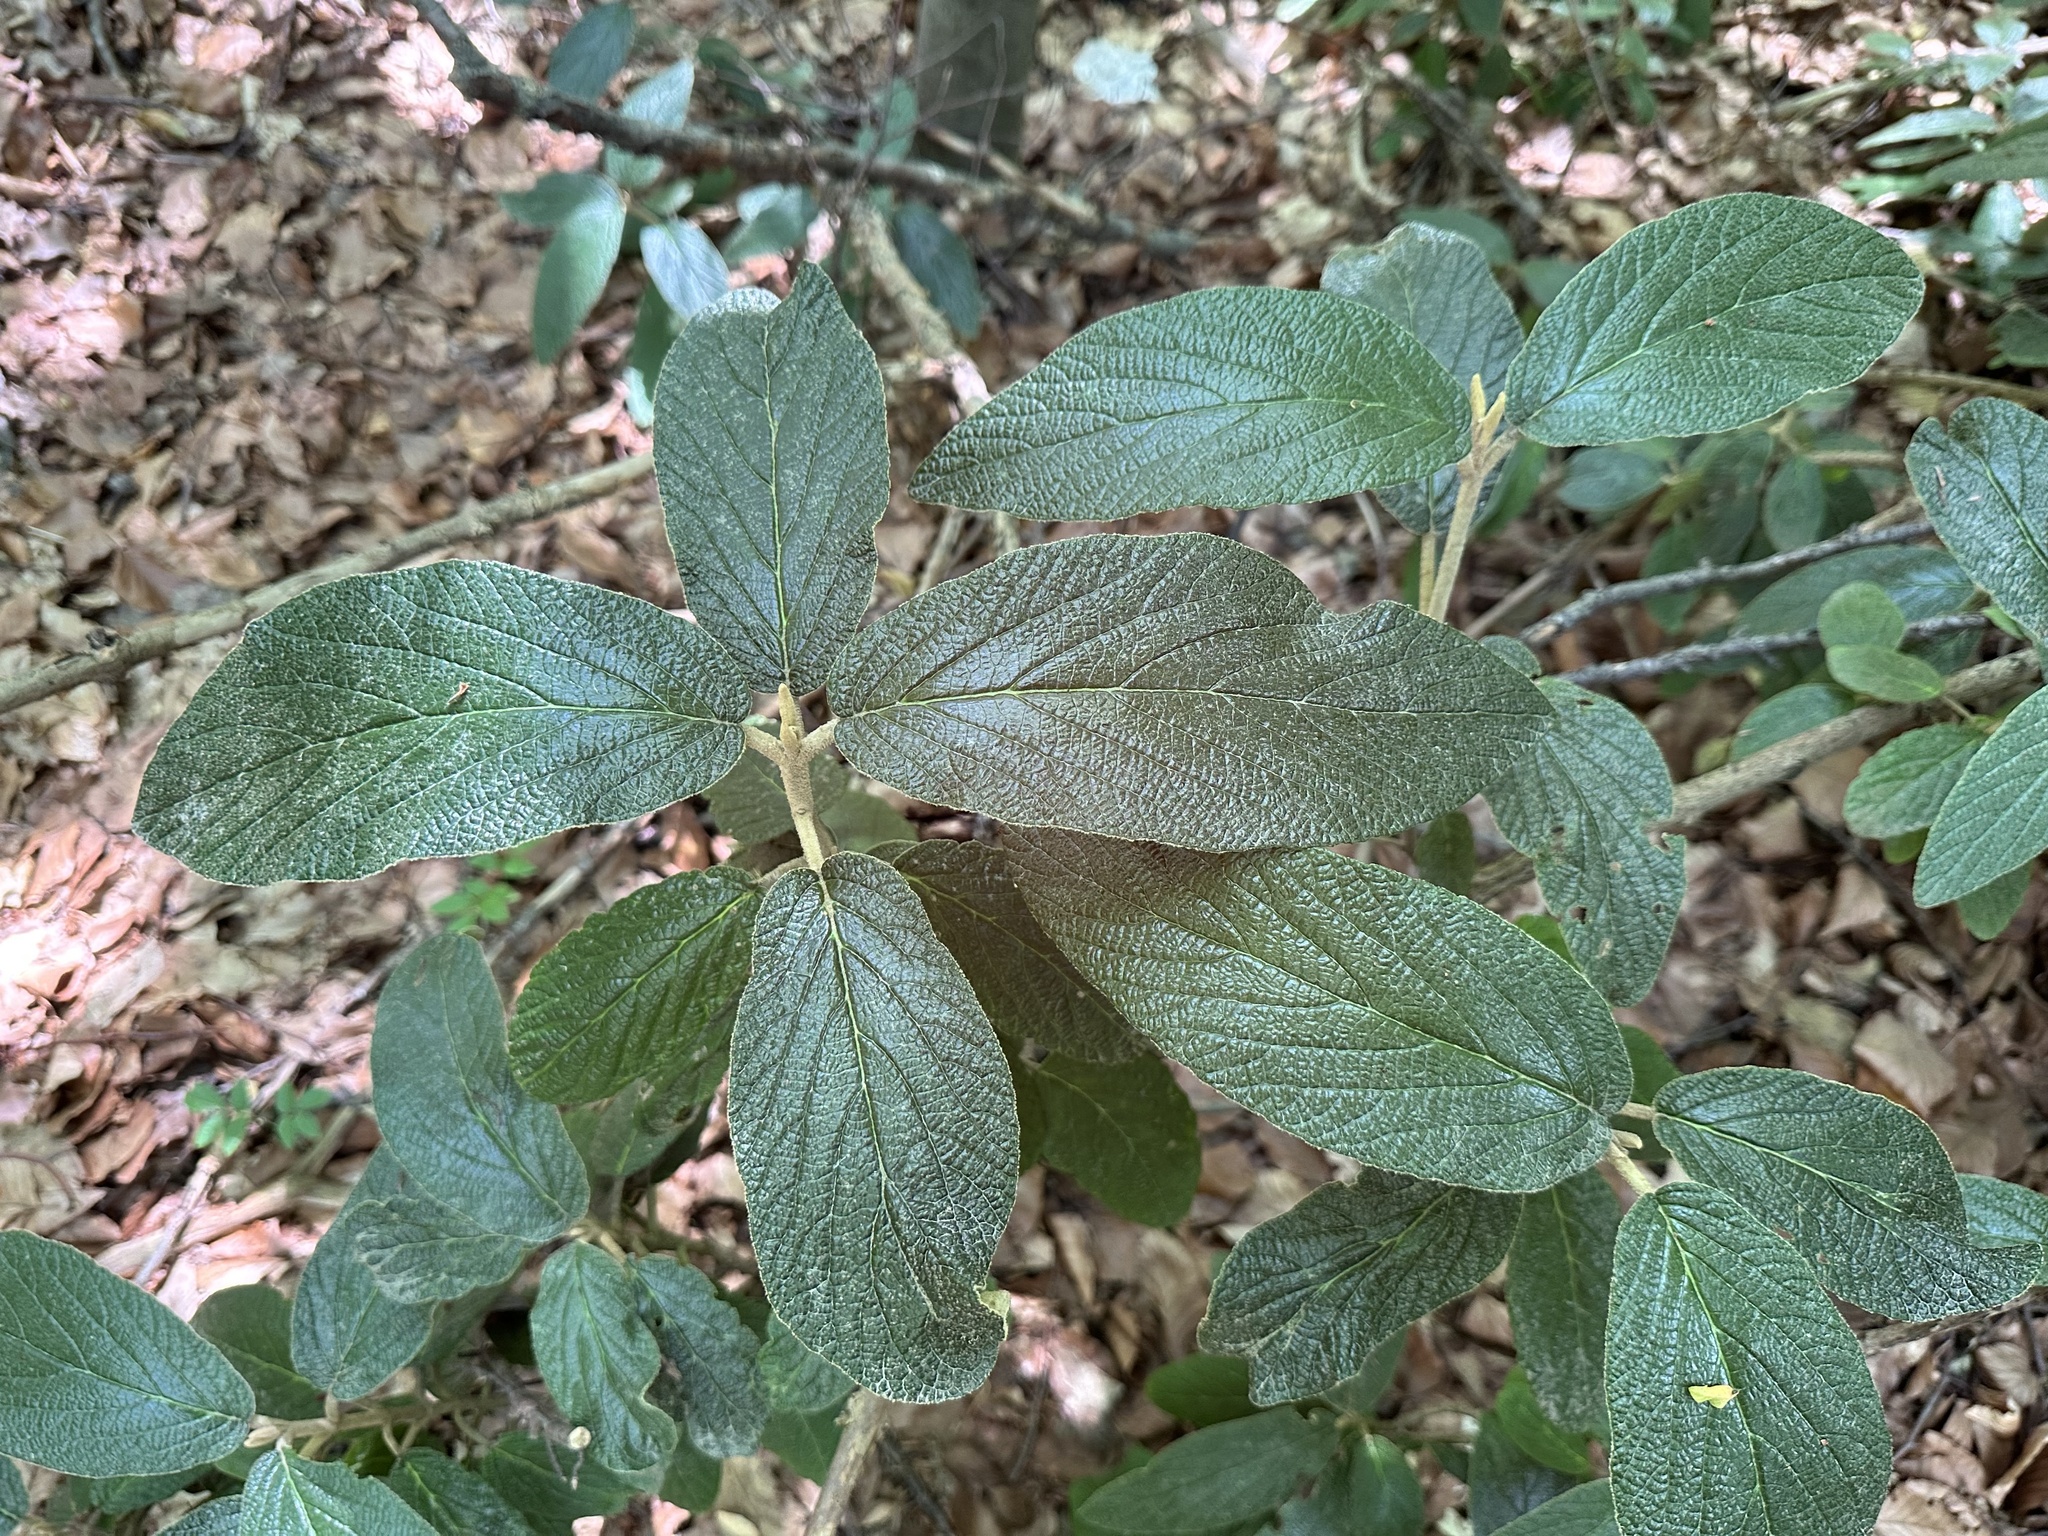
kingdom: Plantae
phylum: Tracheophyta
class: Magnoliopsida
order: Dipsacales
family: Viburnaceae
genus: Viburnum
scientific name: Viburnum rhytidophyllum
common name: Wrinkled viburnum
